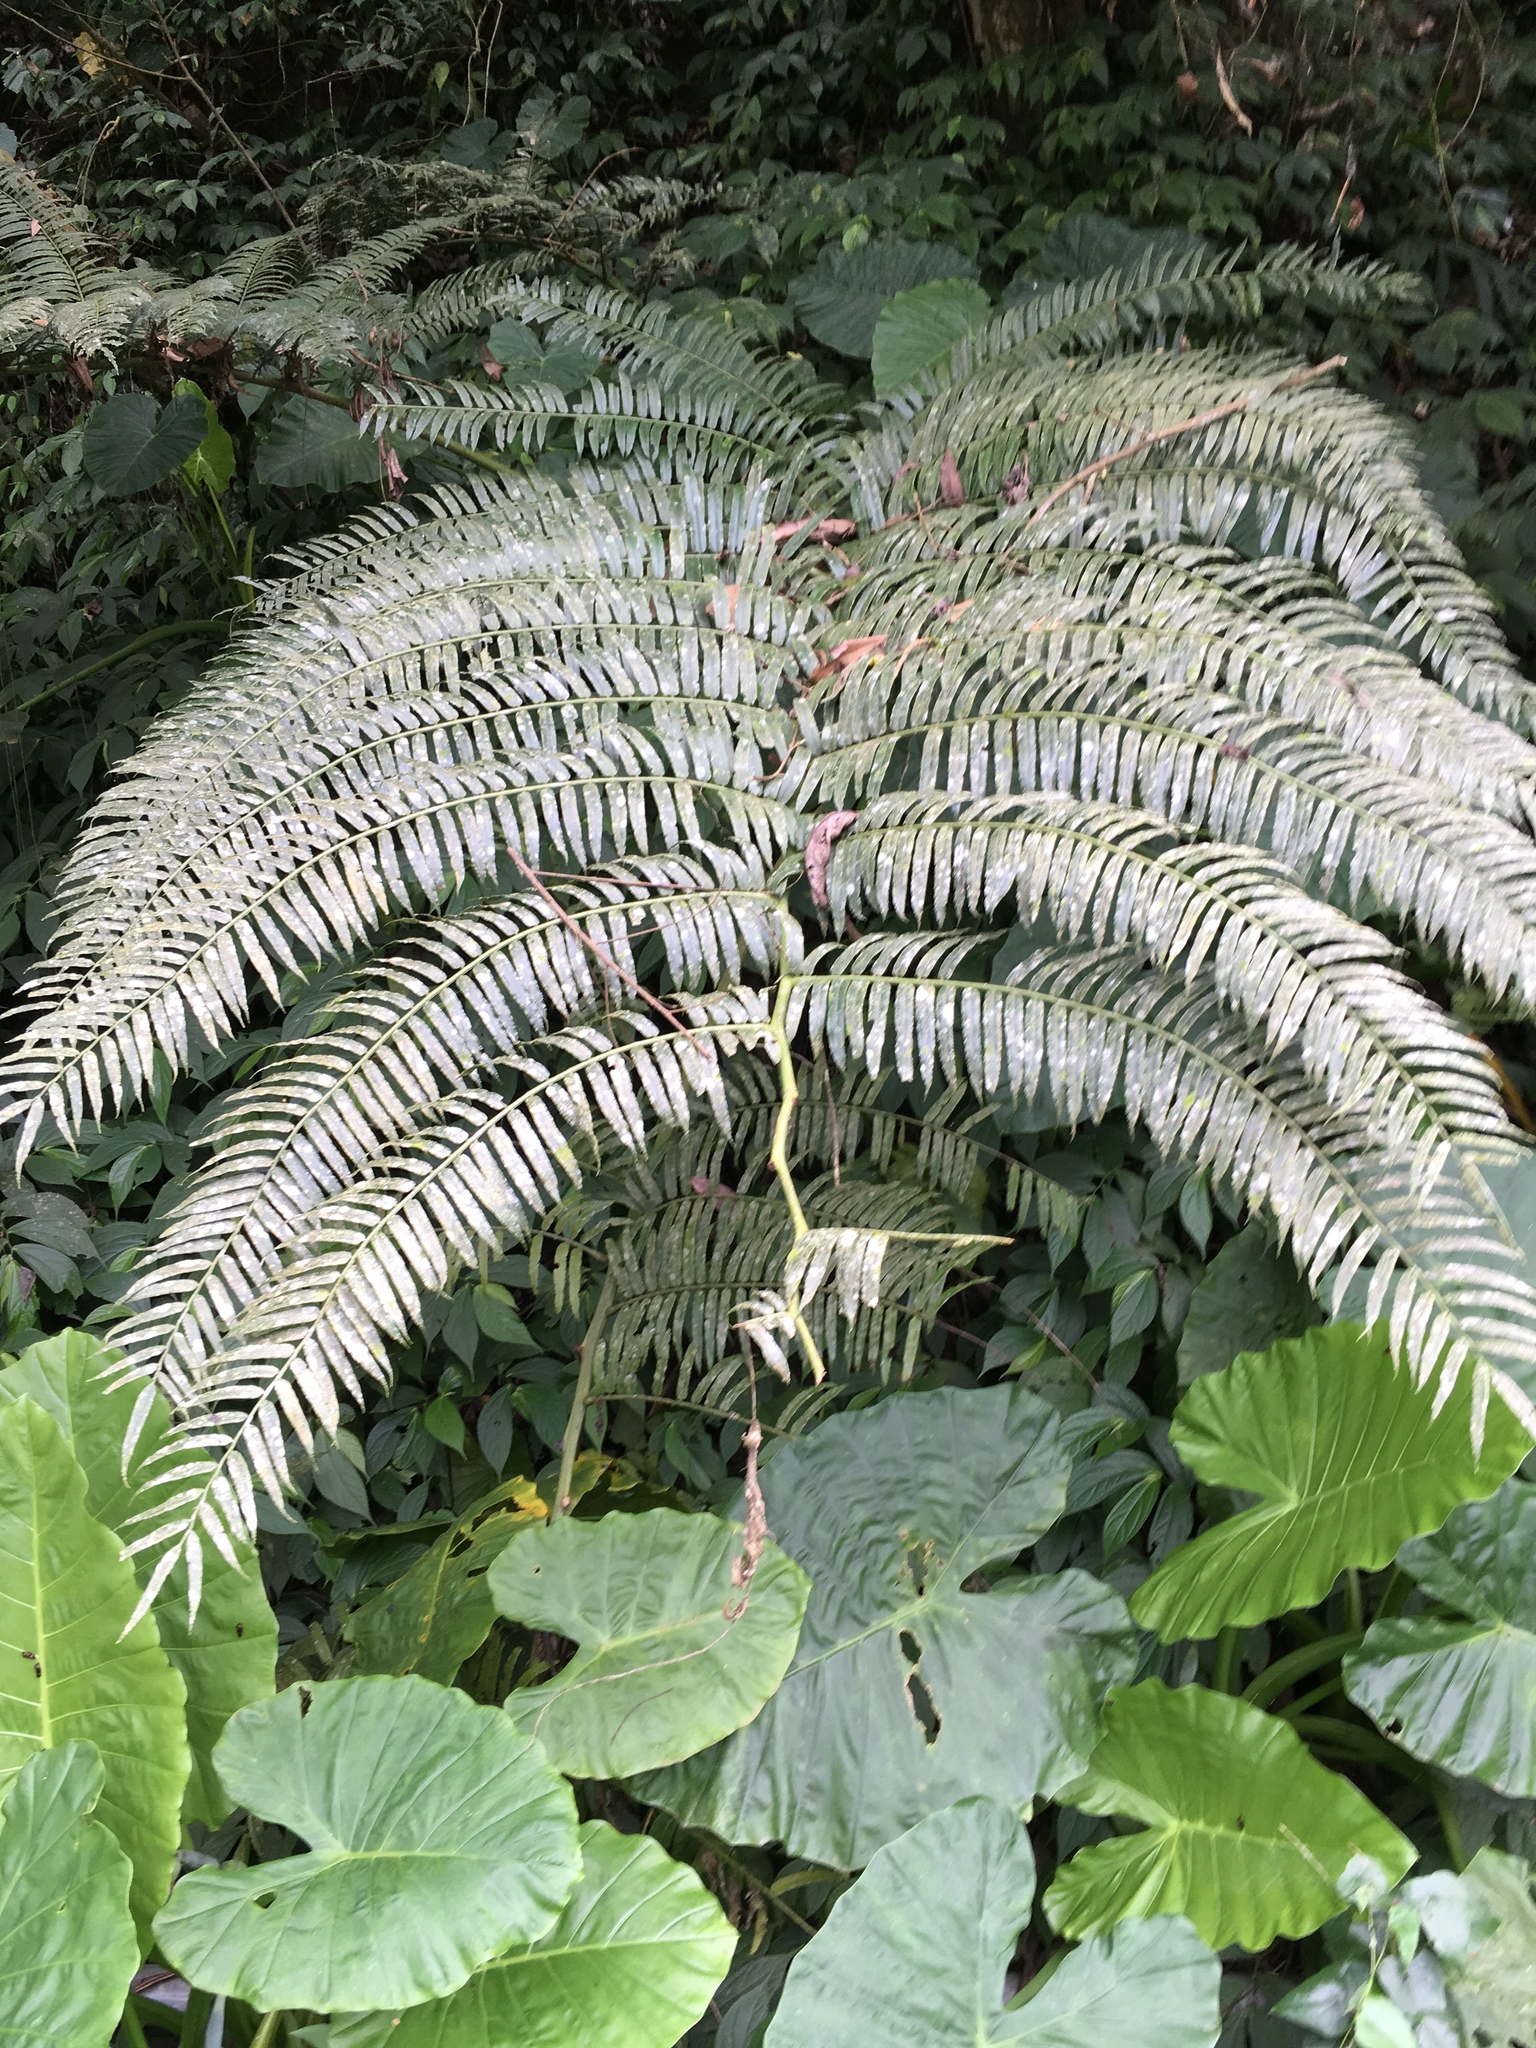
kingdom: Plantae
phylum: Tracheophyta
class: Polypodiopsida
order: Marattiales
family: Marattiaceae
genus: Angiopteris
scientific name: Angiopteris lygodiifolia
